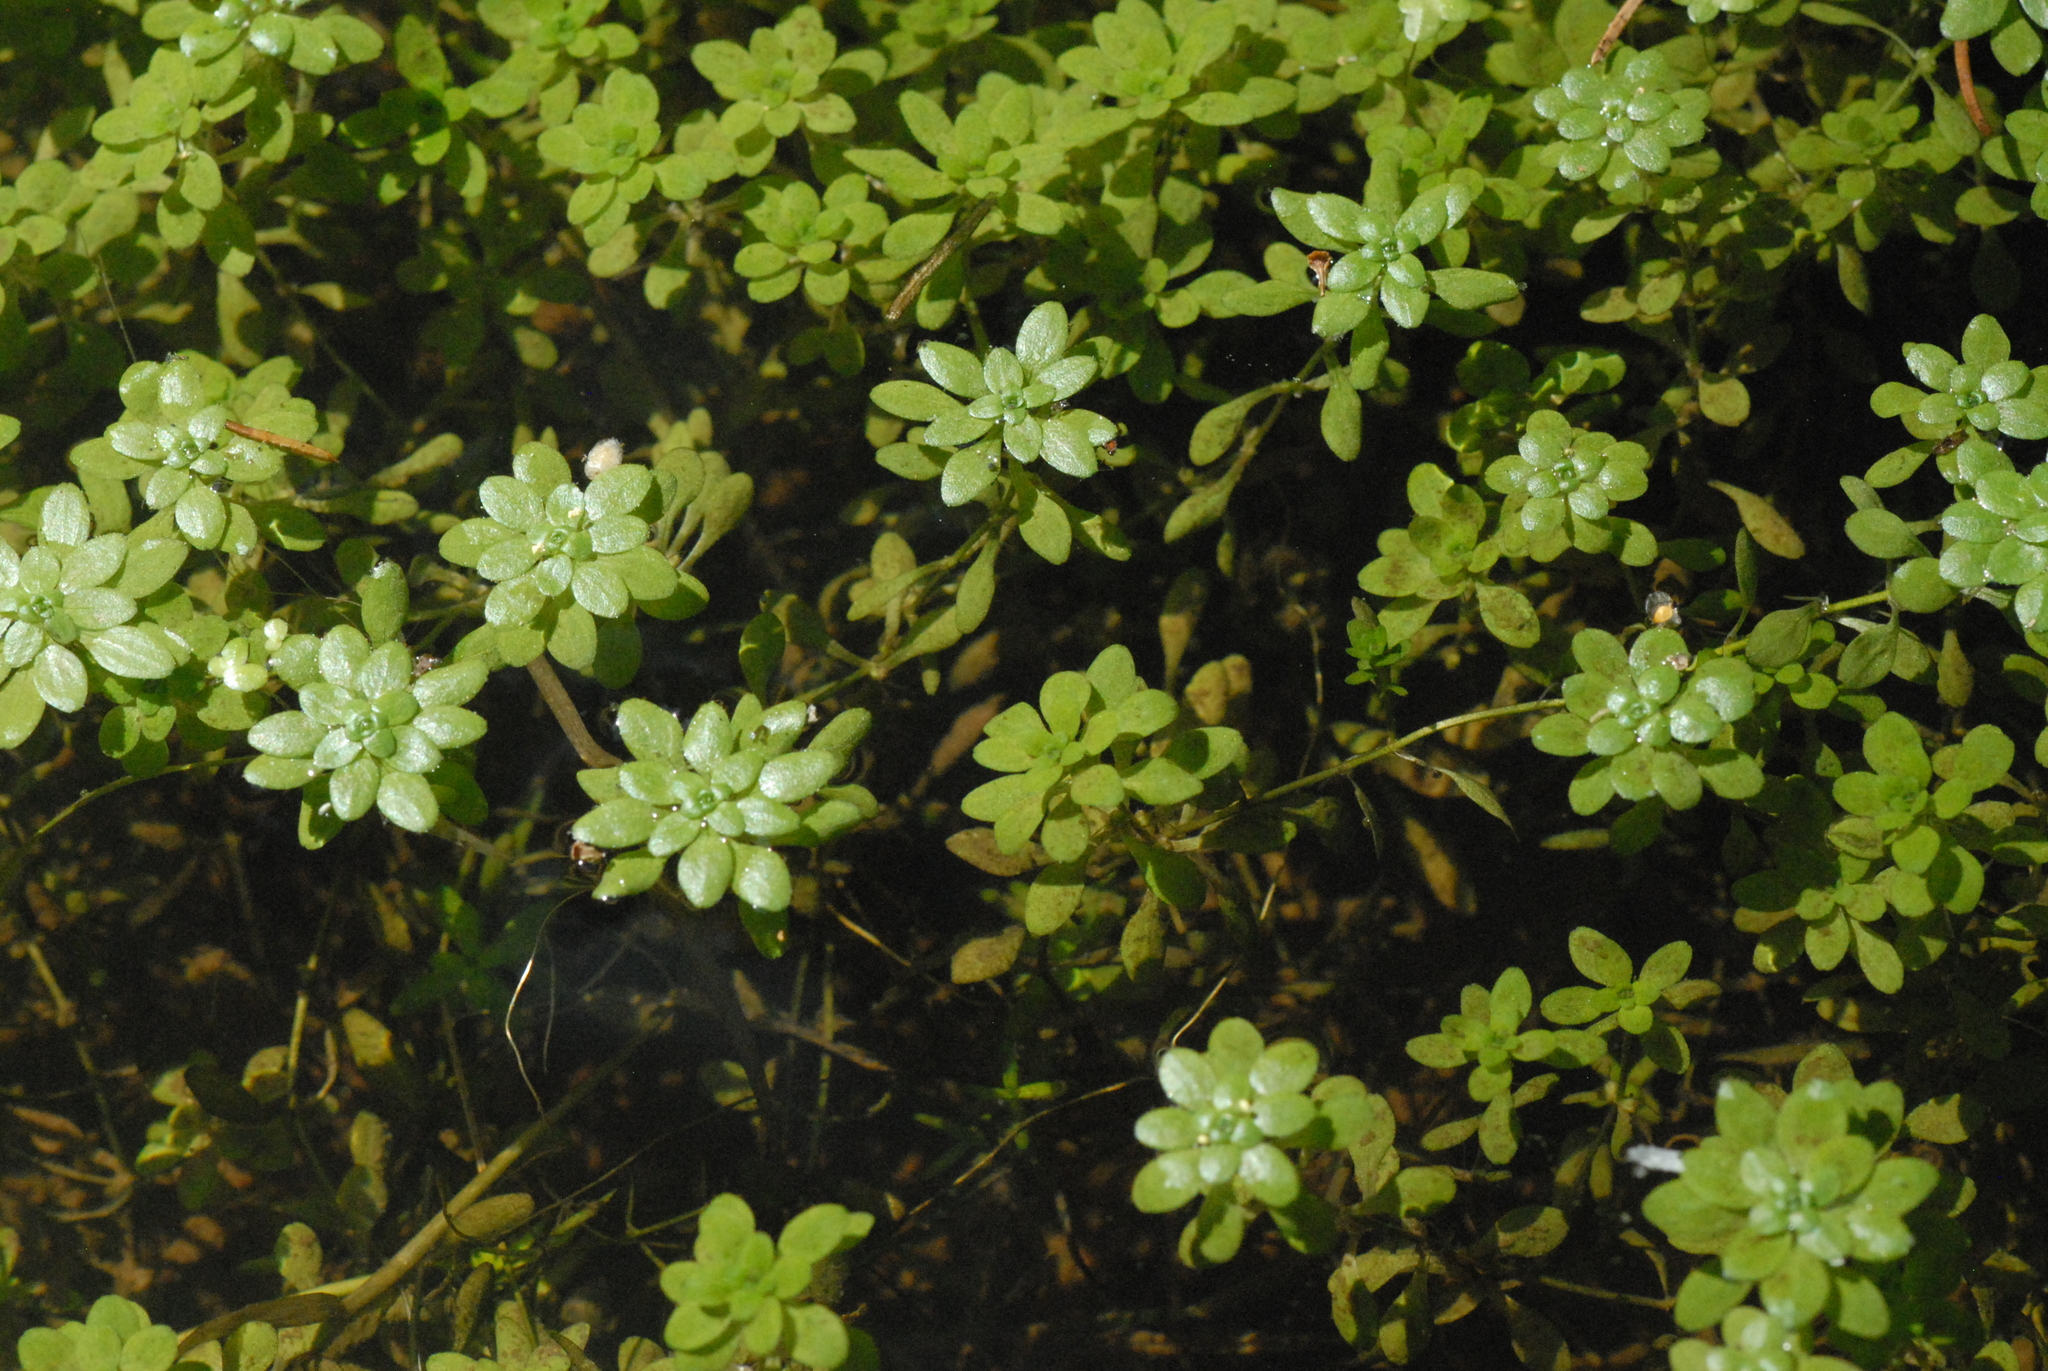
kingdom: Plantae
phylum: Tracheophyta
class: Magnoliopsida
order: Lamiales
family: Plantaginaceae
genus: Callitriche
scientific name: Callitriche
